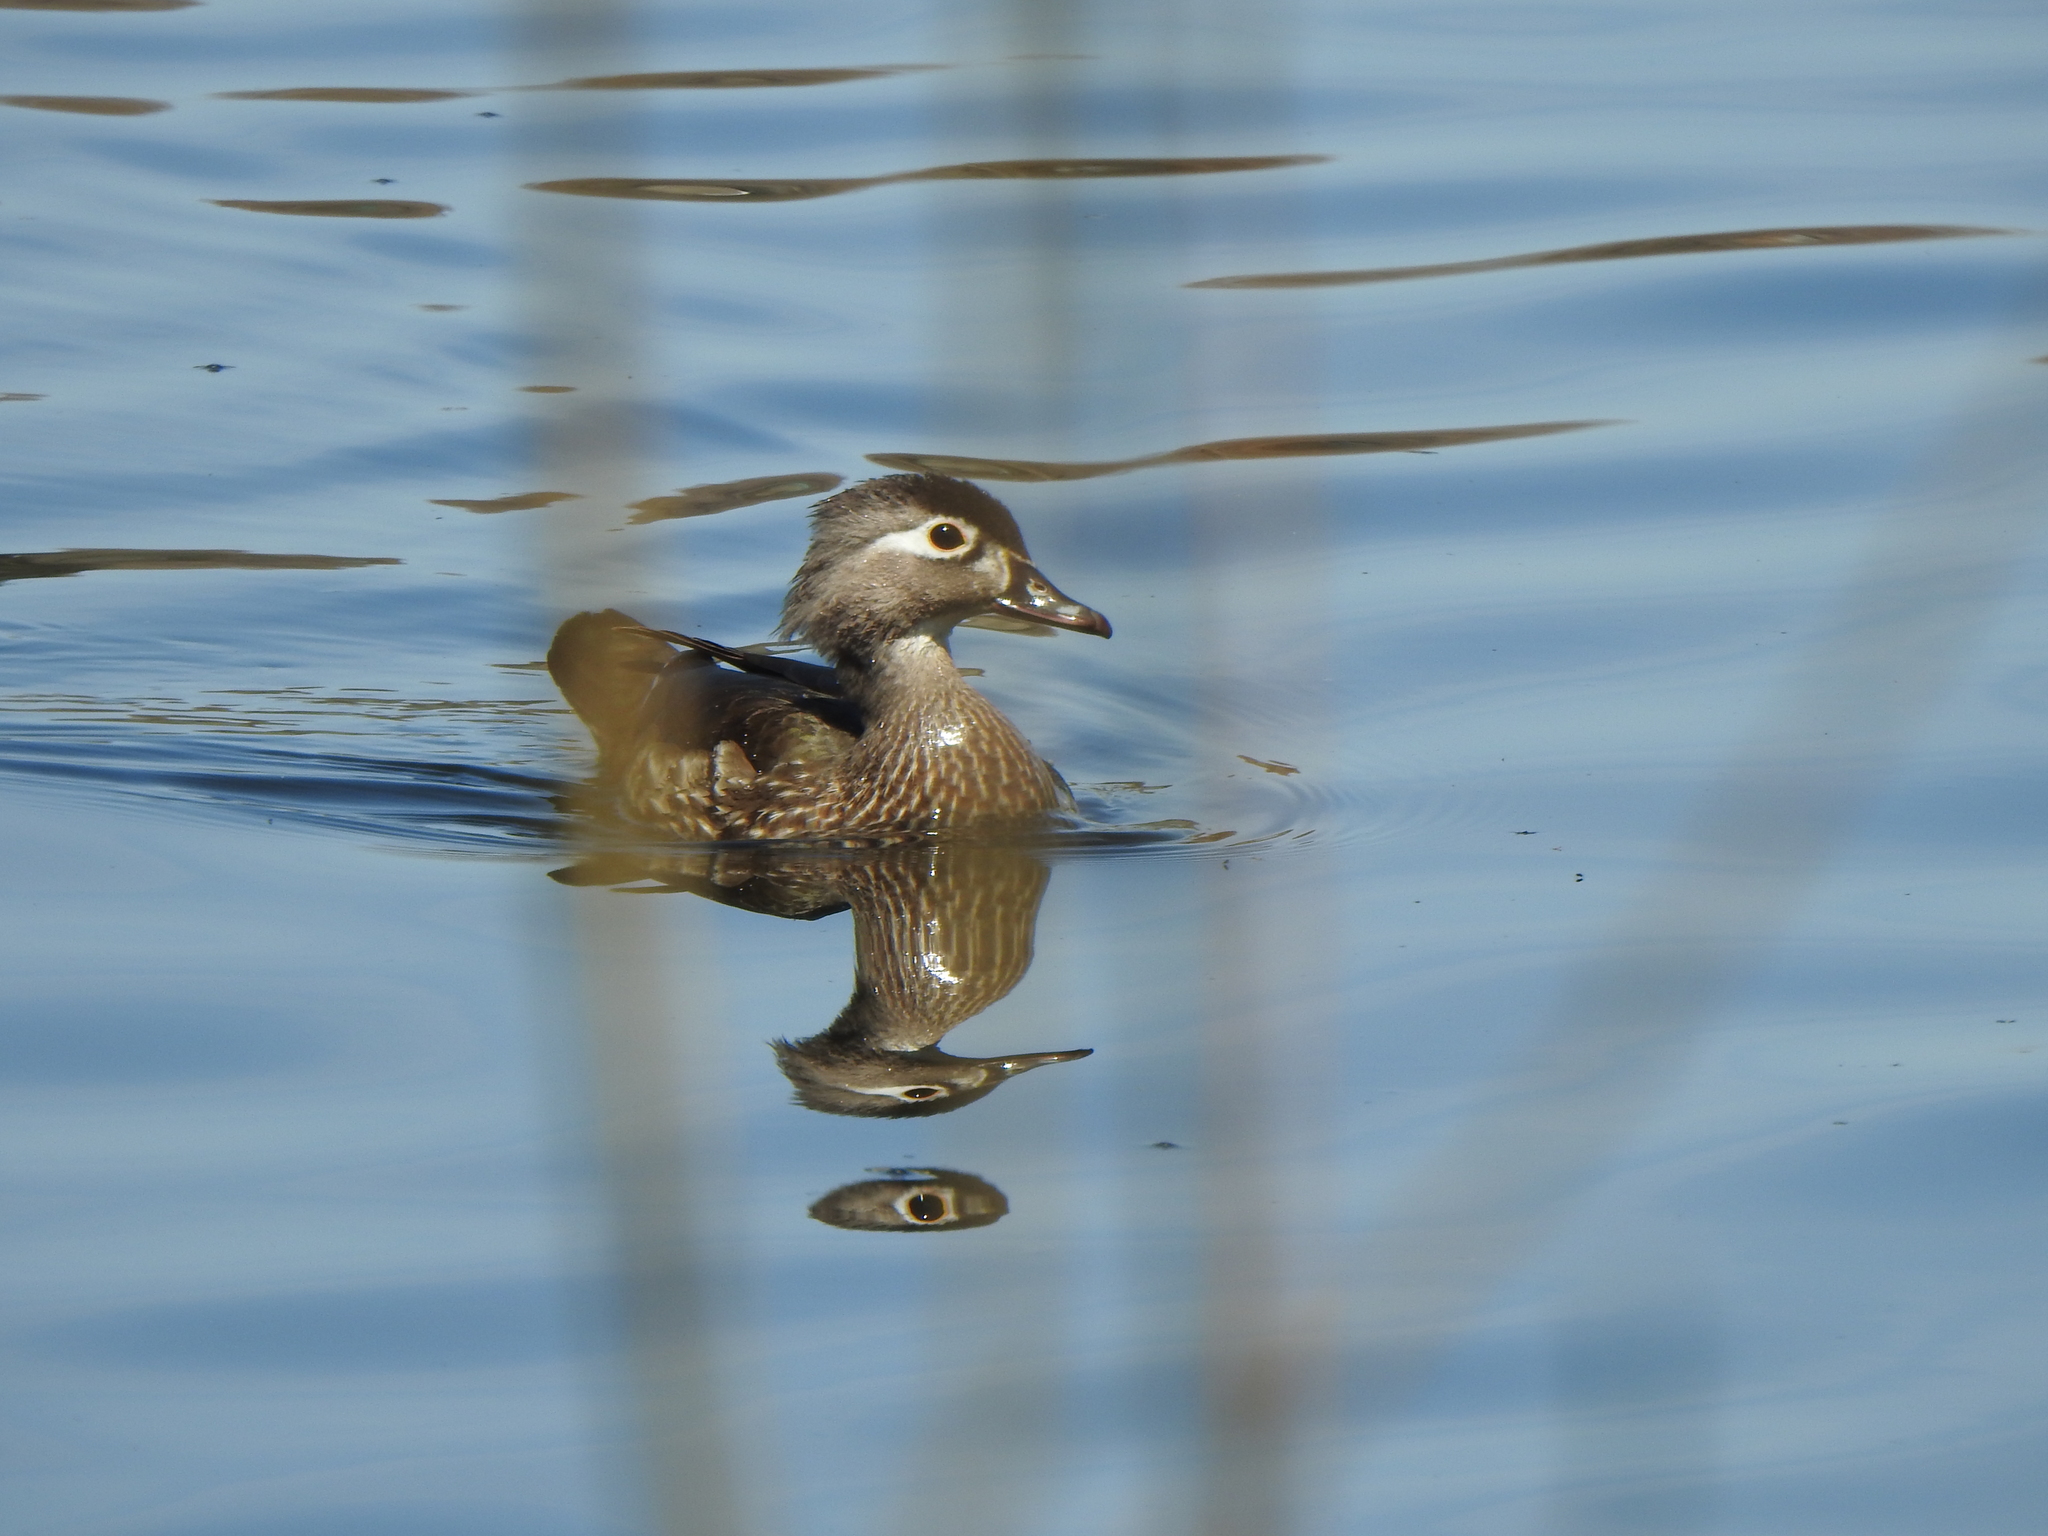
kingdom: Animalia
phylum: Chordata
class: Aves
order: Anseriformes
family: Anatidae
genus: Aix
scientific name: Aix sponsa
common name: Wood duck
